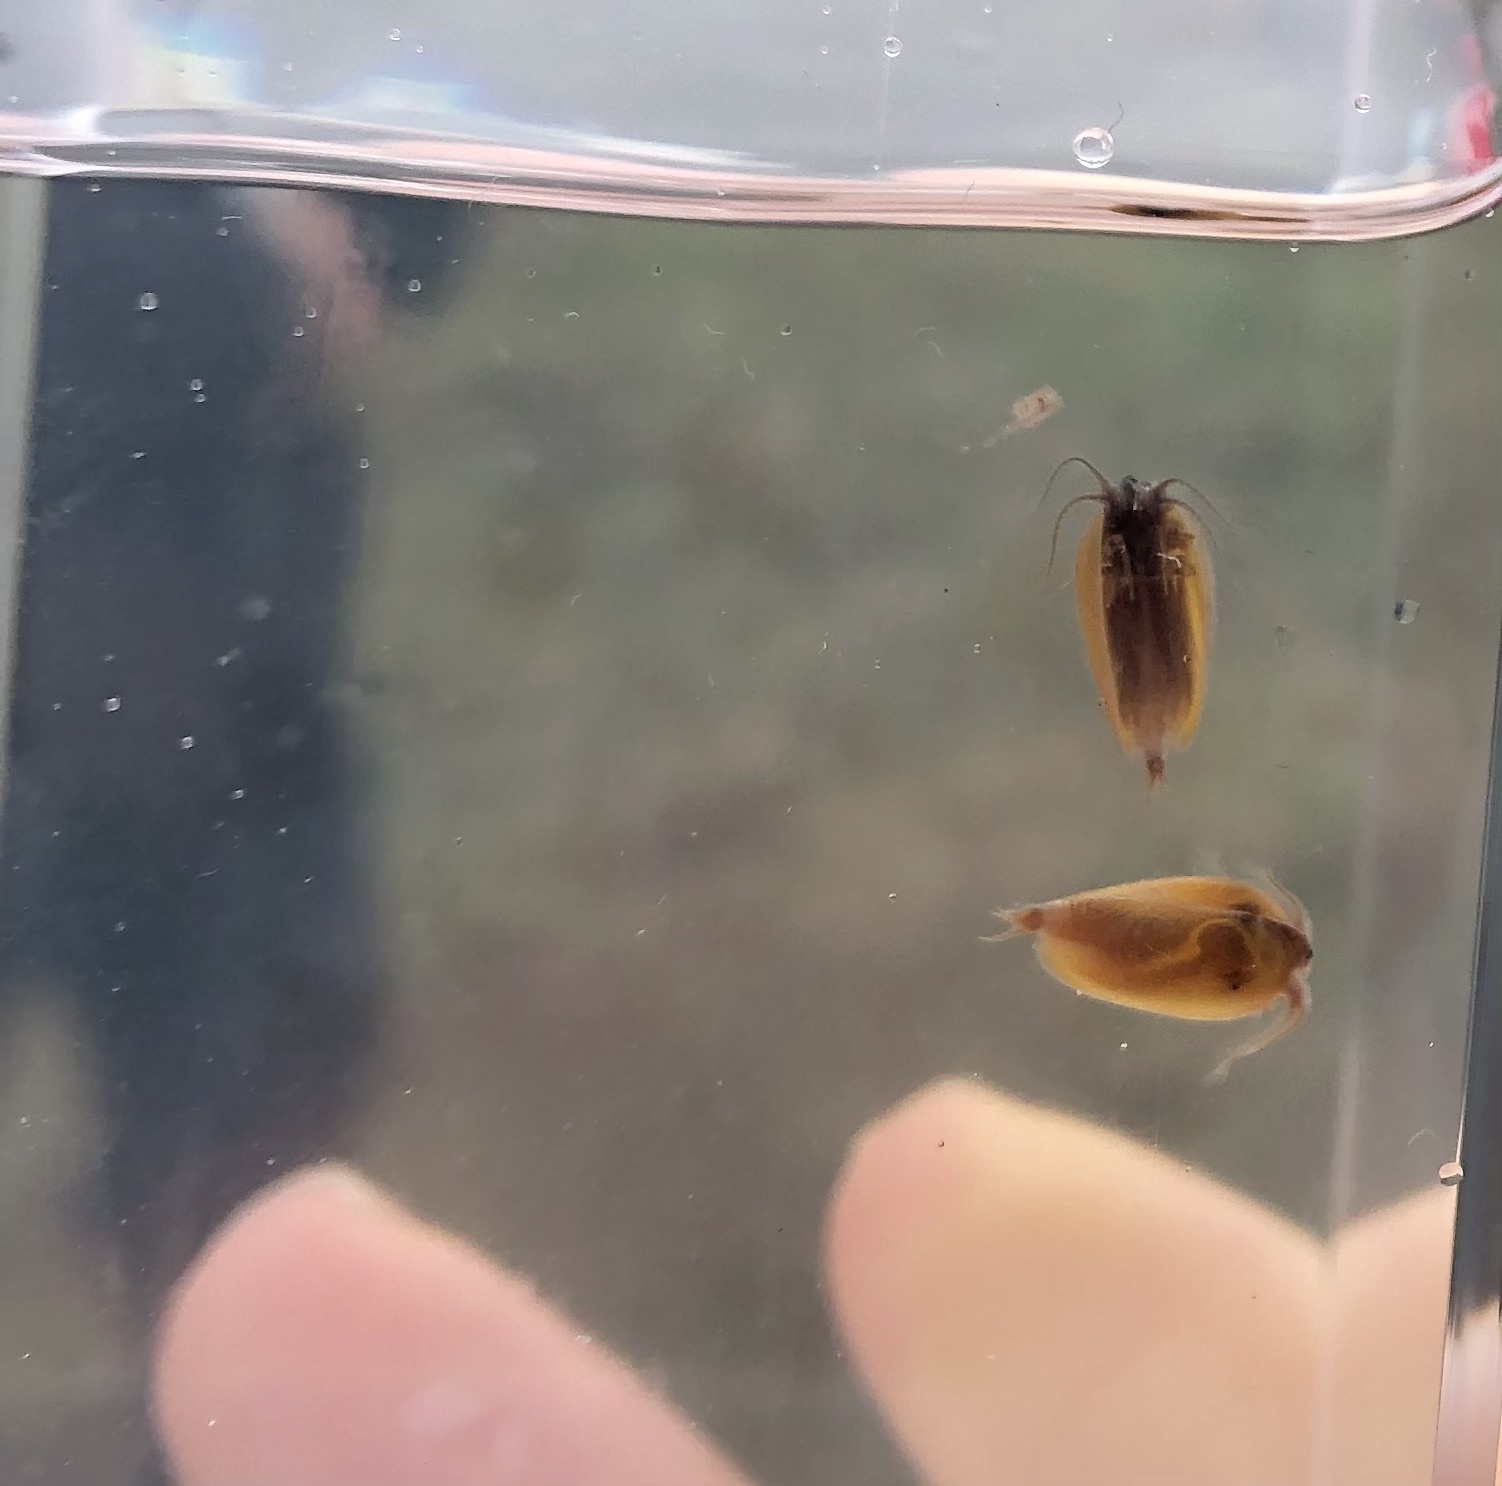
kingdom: Animalia
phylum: Arthropoda
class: Branchiopoda
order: Diplostraca
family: Cyzicidae
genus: Cyzicus
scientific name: Cyzicus californicus
